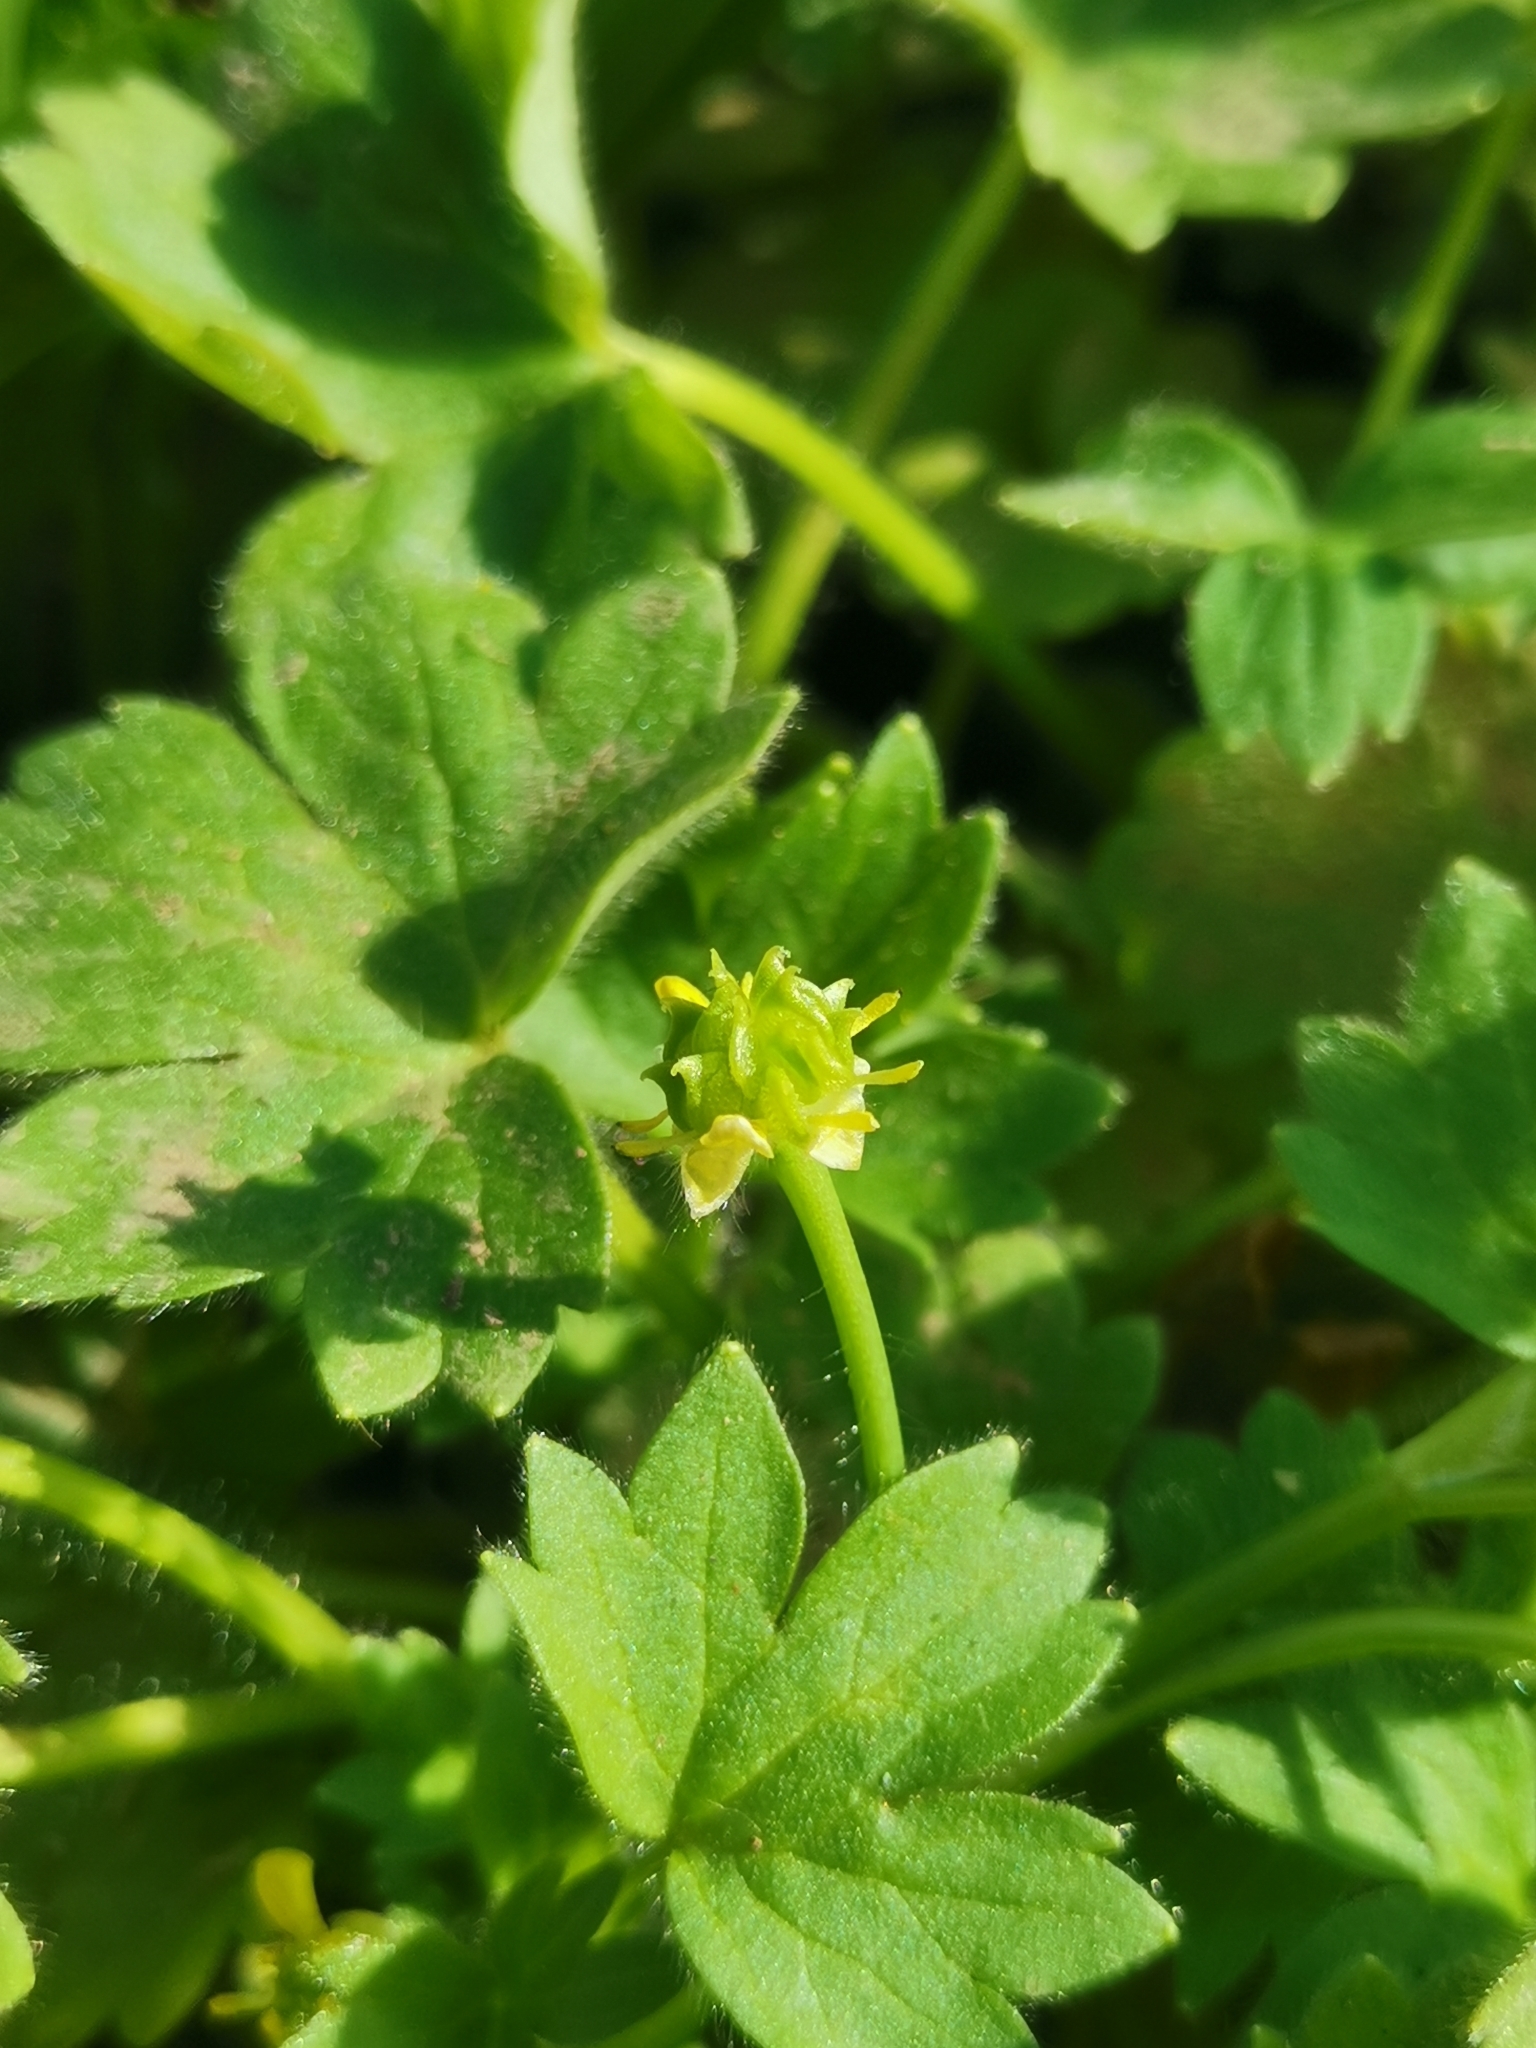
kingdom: Plantae
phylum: Tracheophyta
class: Magnoliopsida
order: Ranunculales
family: Ranunculaceae
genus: Ranunculus
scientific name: Ranunculus parviflorus
